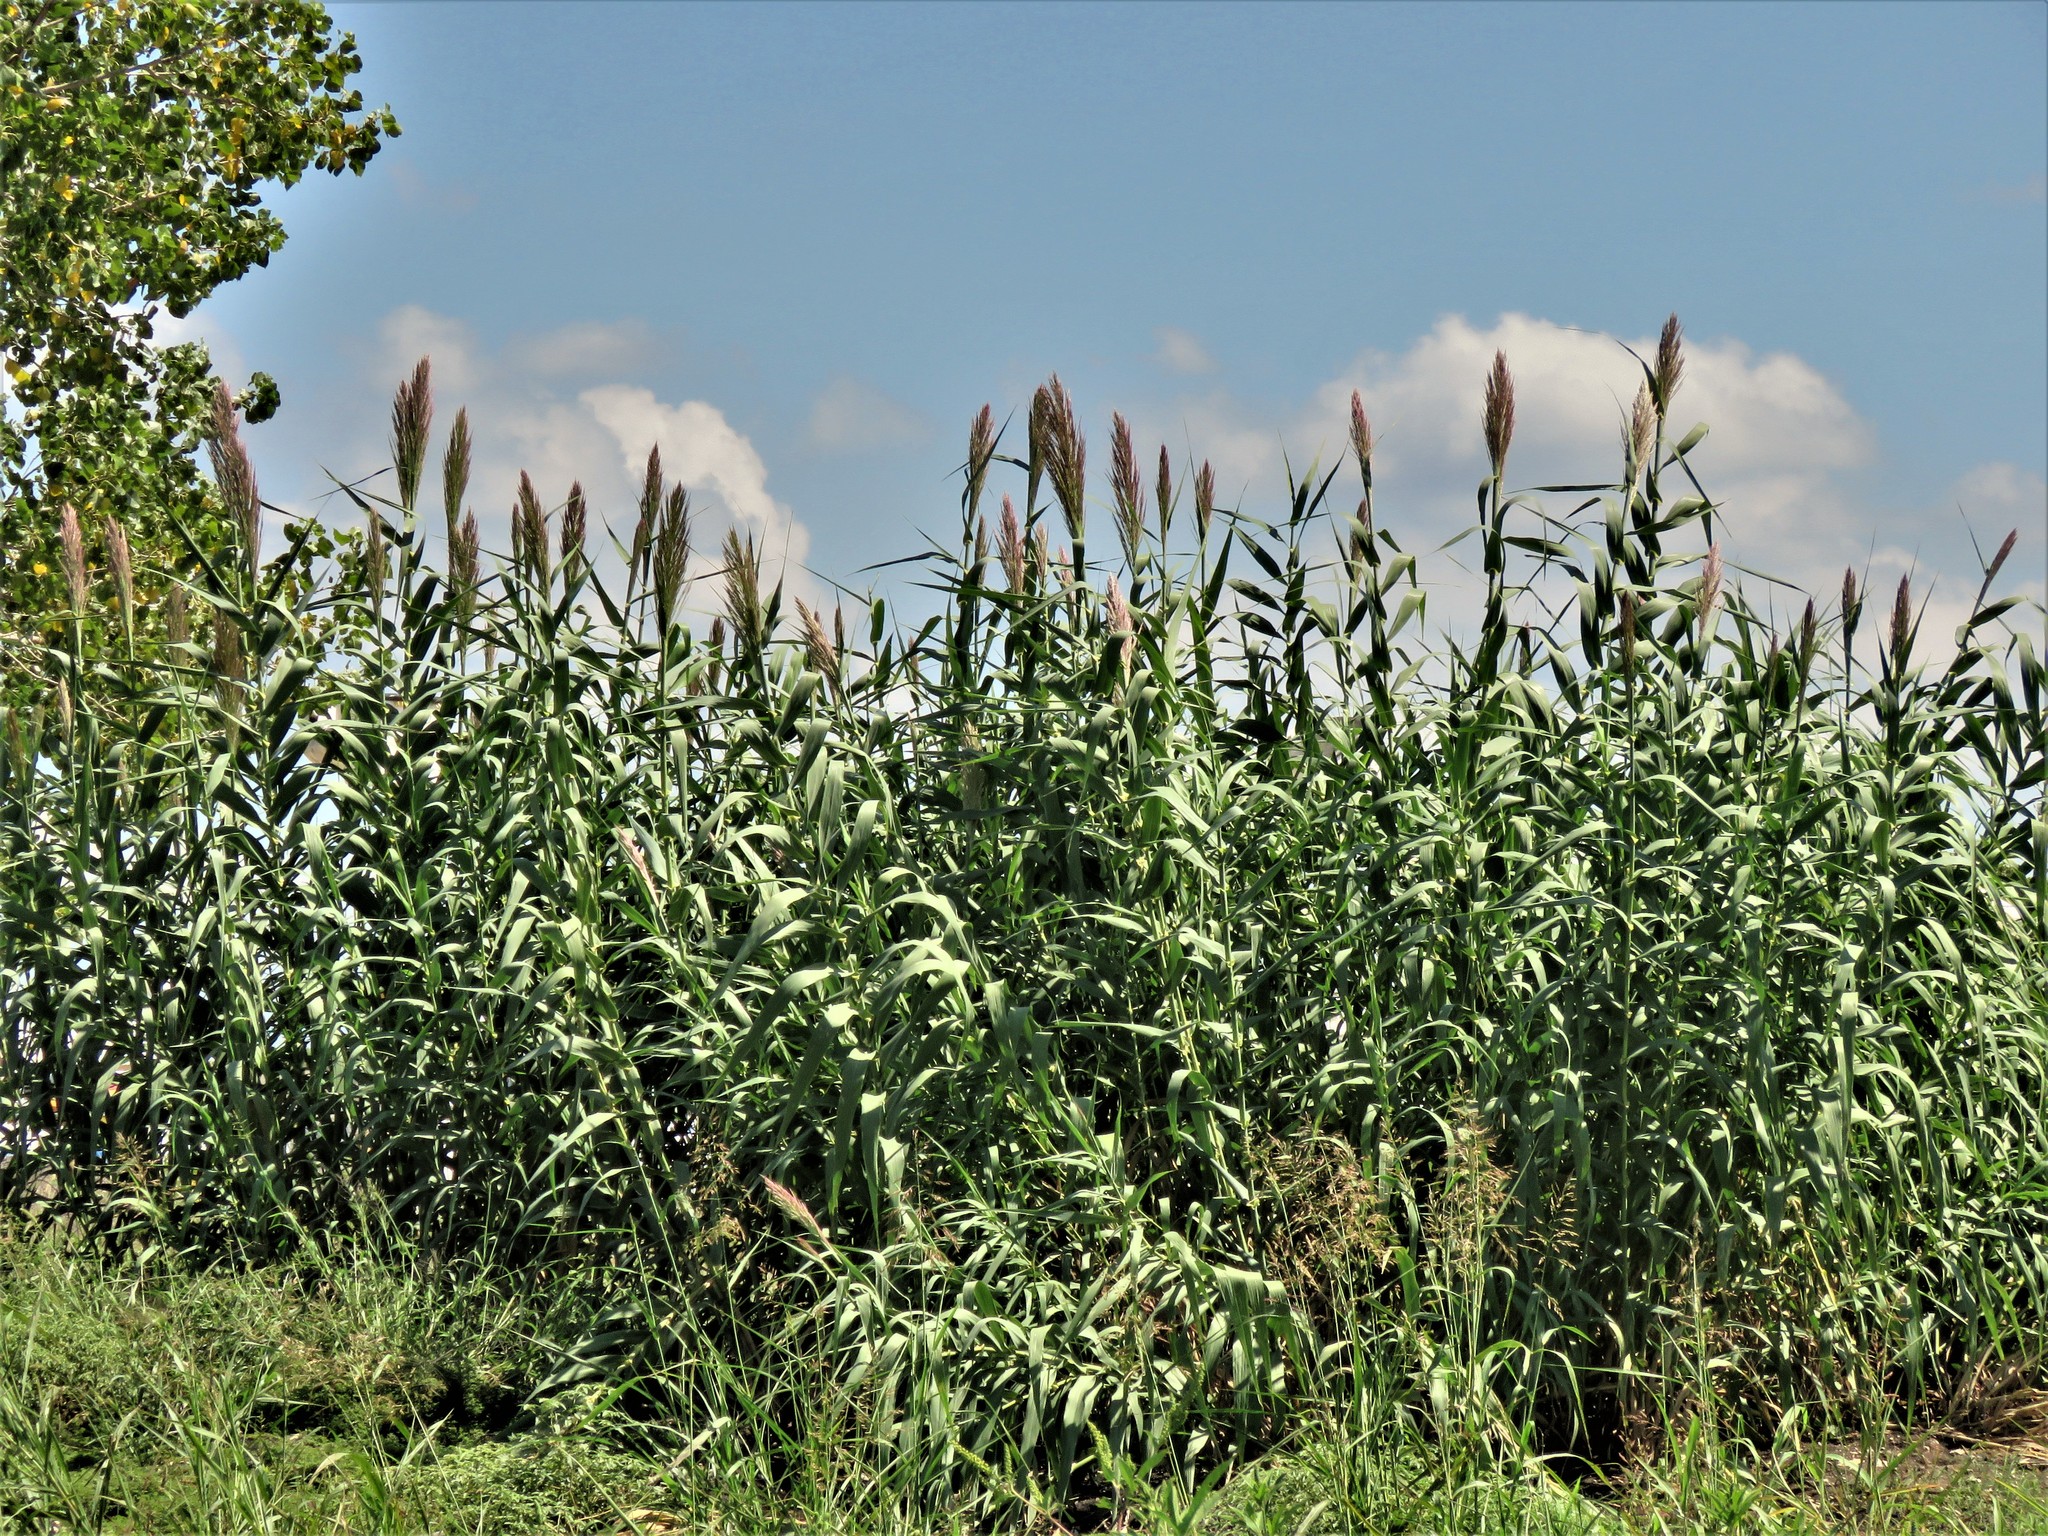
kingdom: Plantae
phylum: Tracheophyta
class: Liliopsida
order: Poales
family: Poaceae
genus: Arundo
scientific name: Arundo donax
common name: Giant reed
